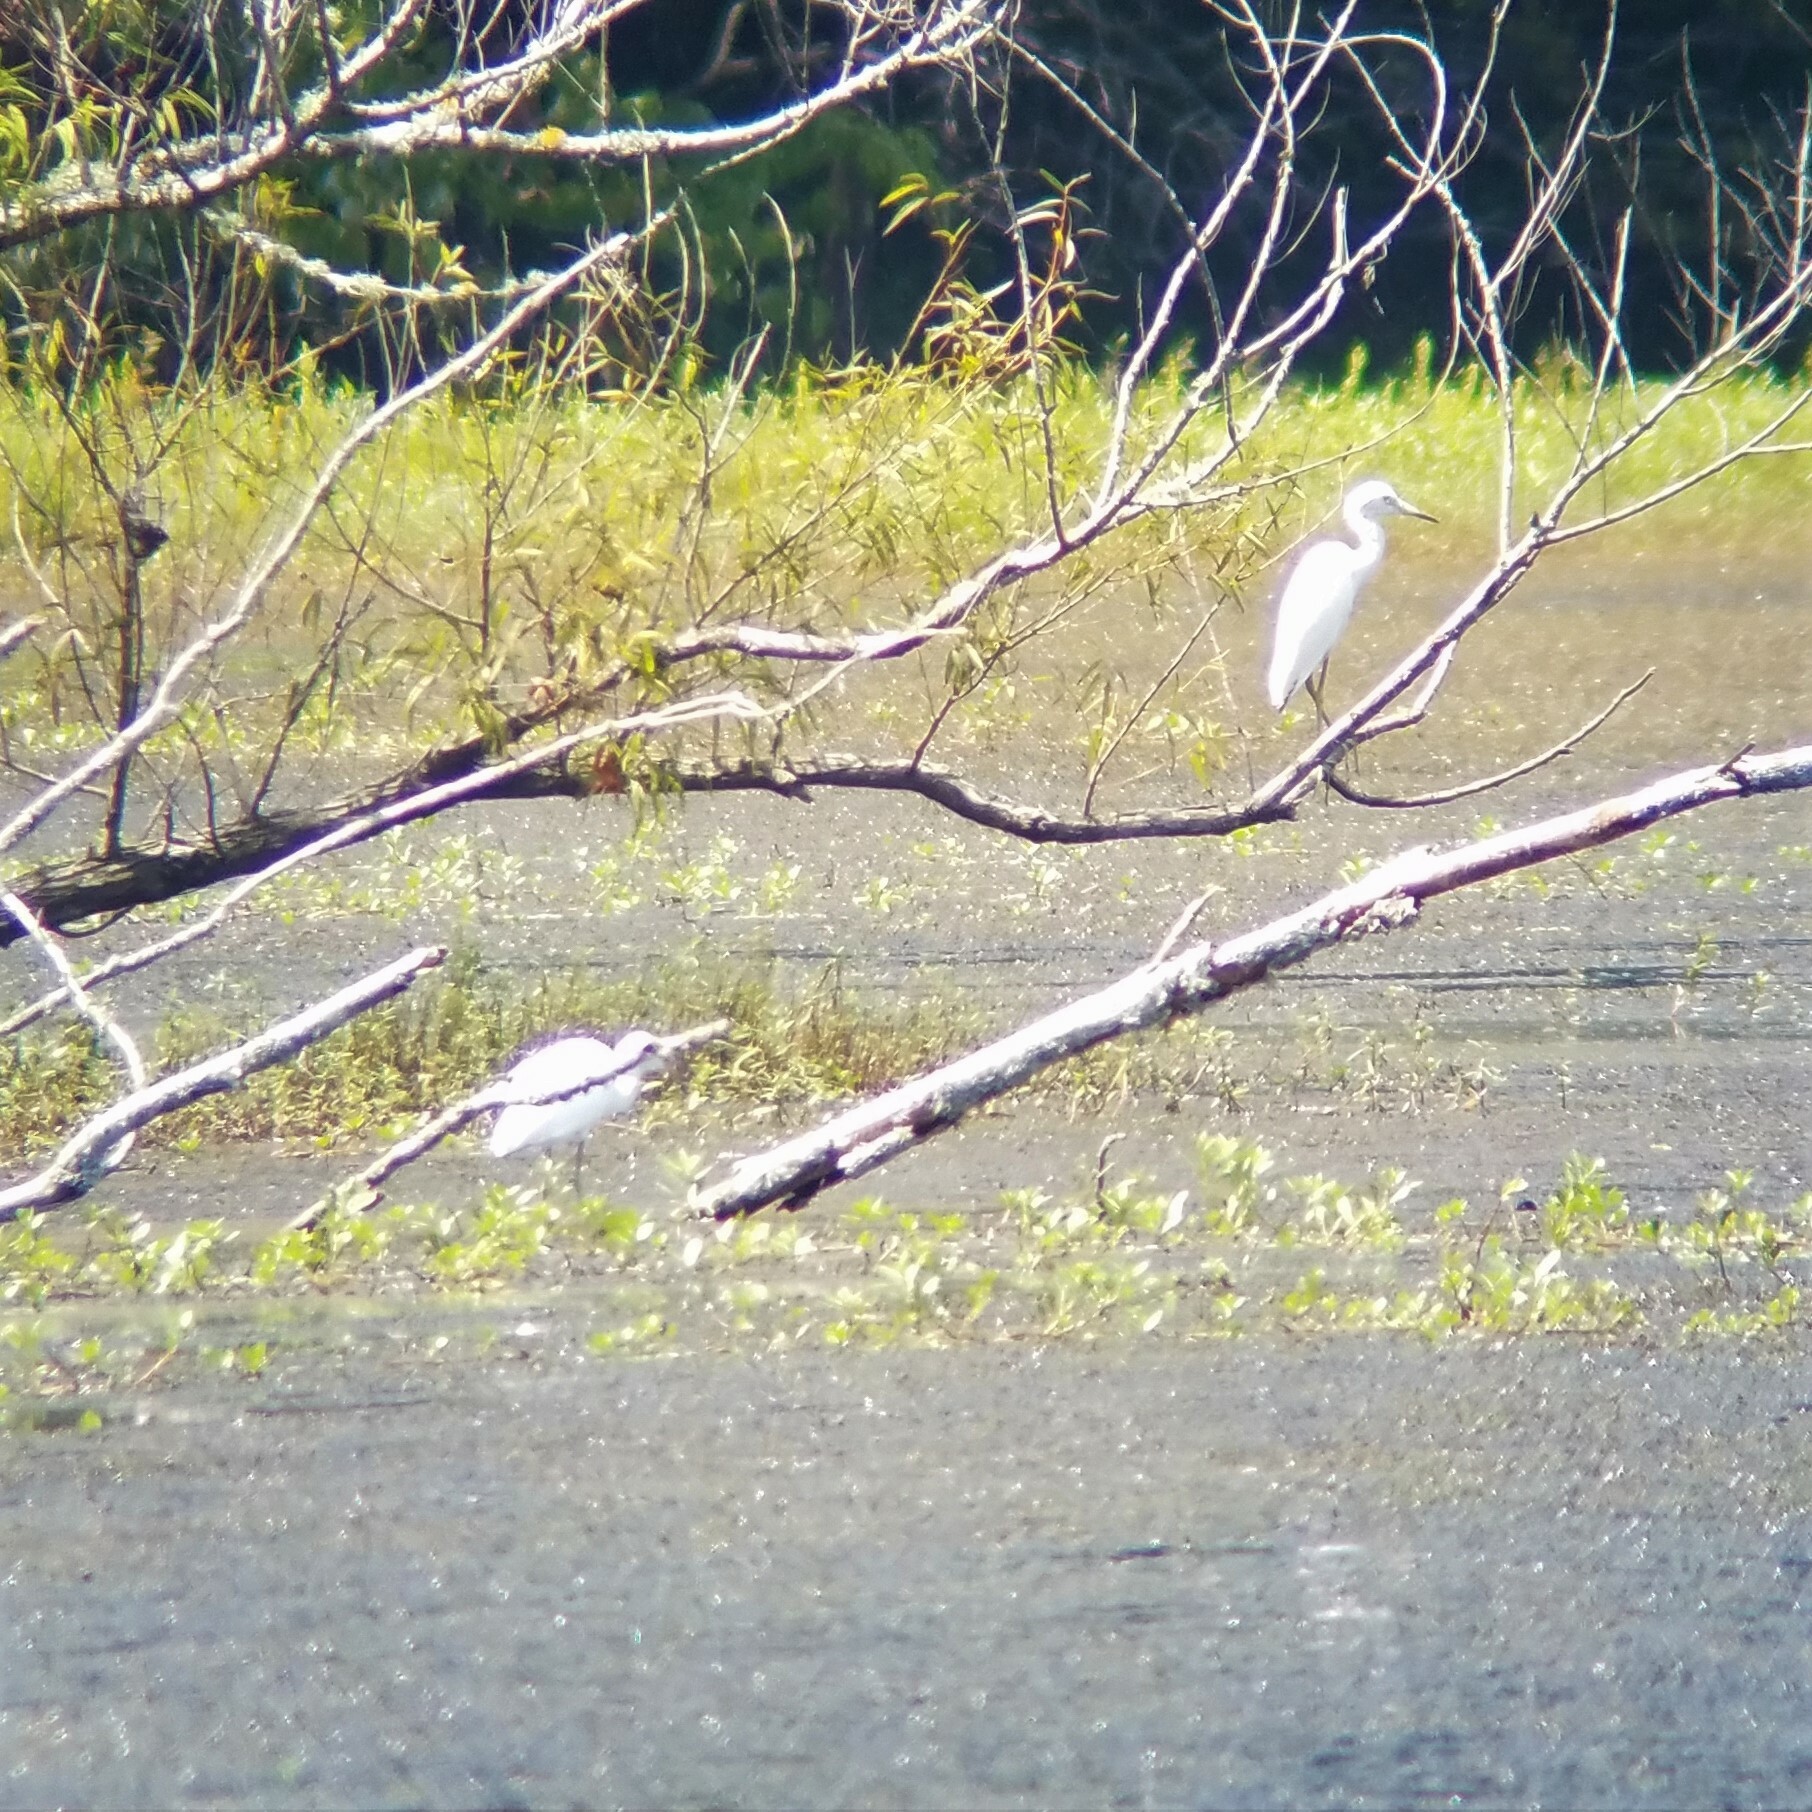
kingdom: Animalia
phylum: Chordata
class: Aves
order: Pelecaniformes
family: Ardeidae
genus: Egretta
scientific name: Egretta caerulea
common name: Little blue heron
